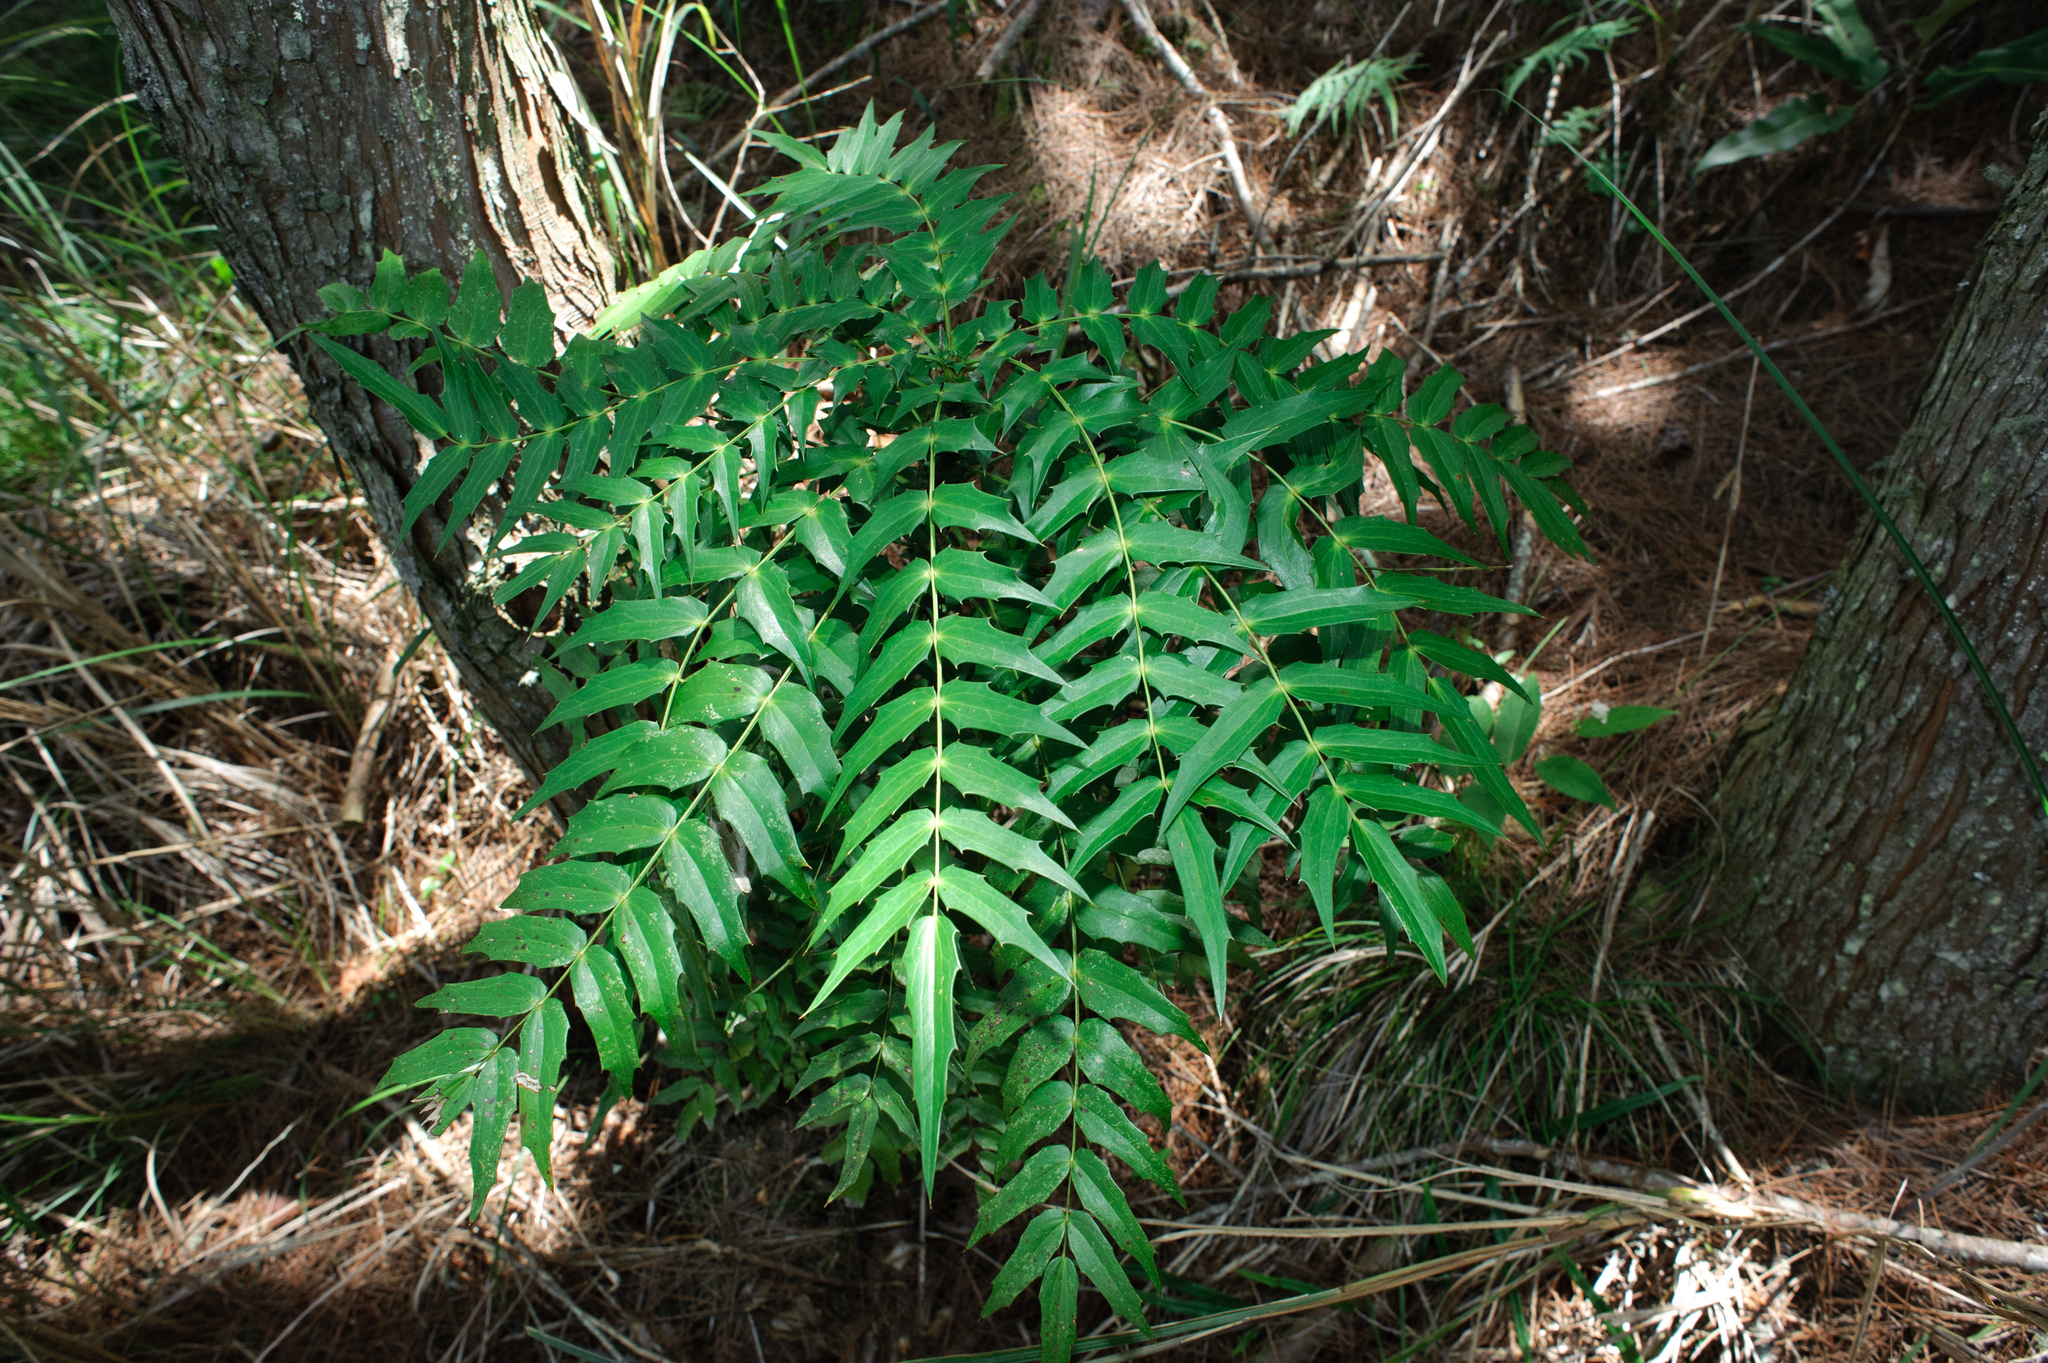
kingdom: Plantae
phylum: Tracheophyta
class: Magnoliopsida
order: Ranunculales
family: Berberidaceae
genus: Mahonia
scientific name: Mahonia oiwakensis
